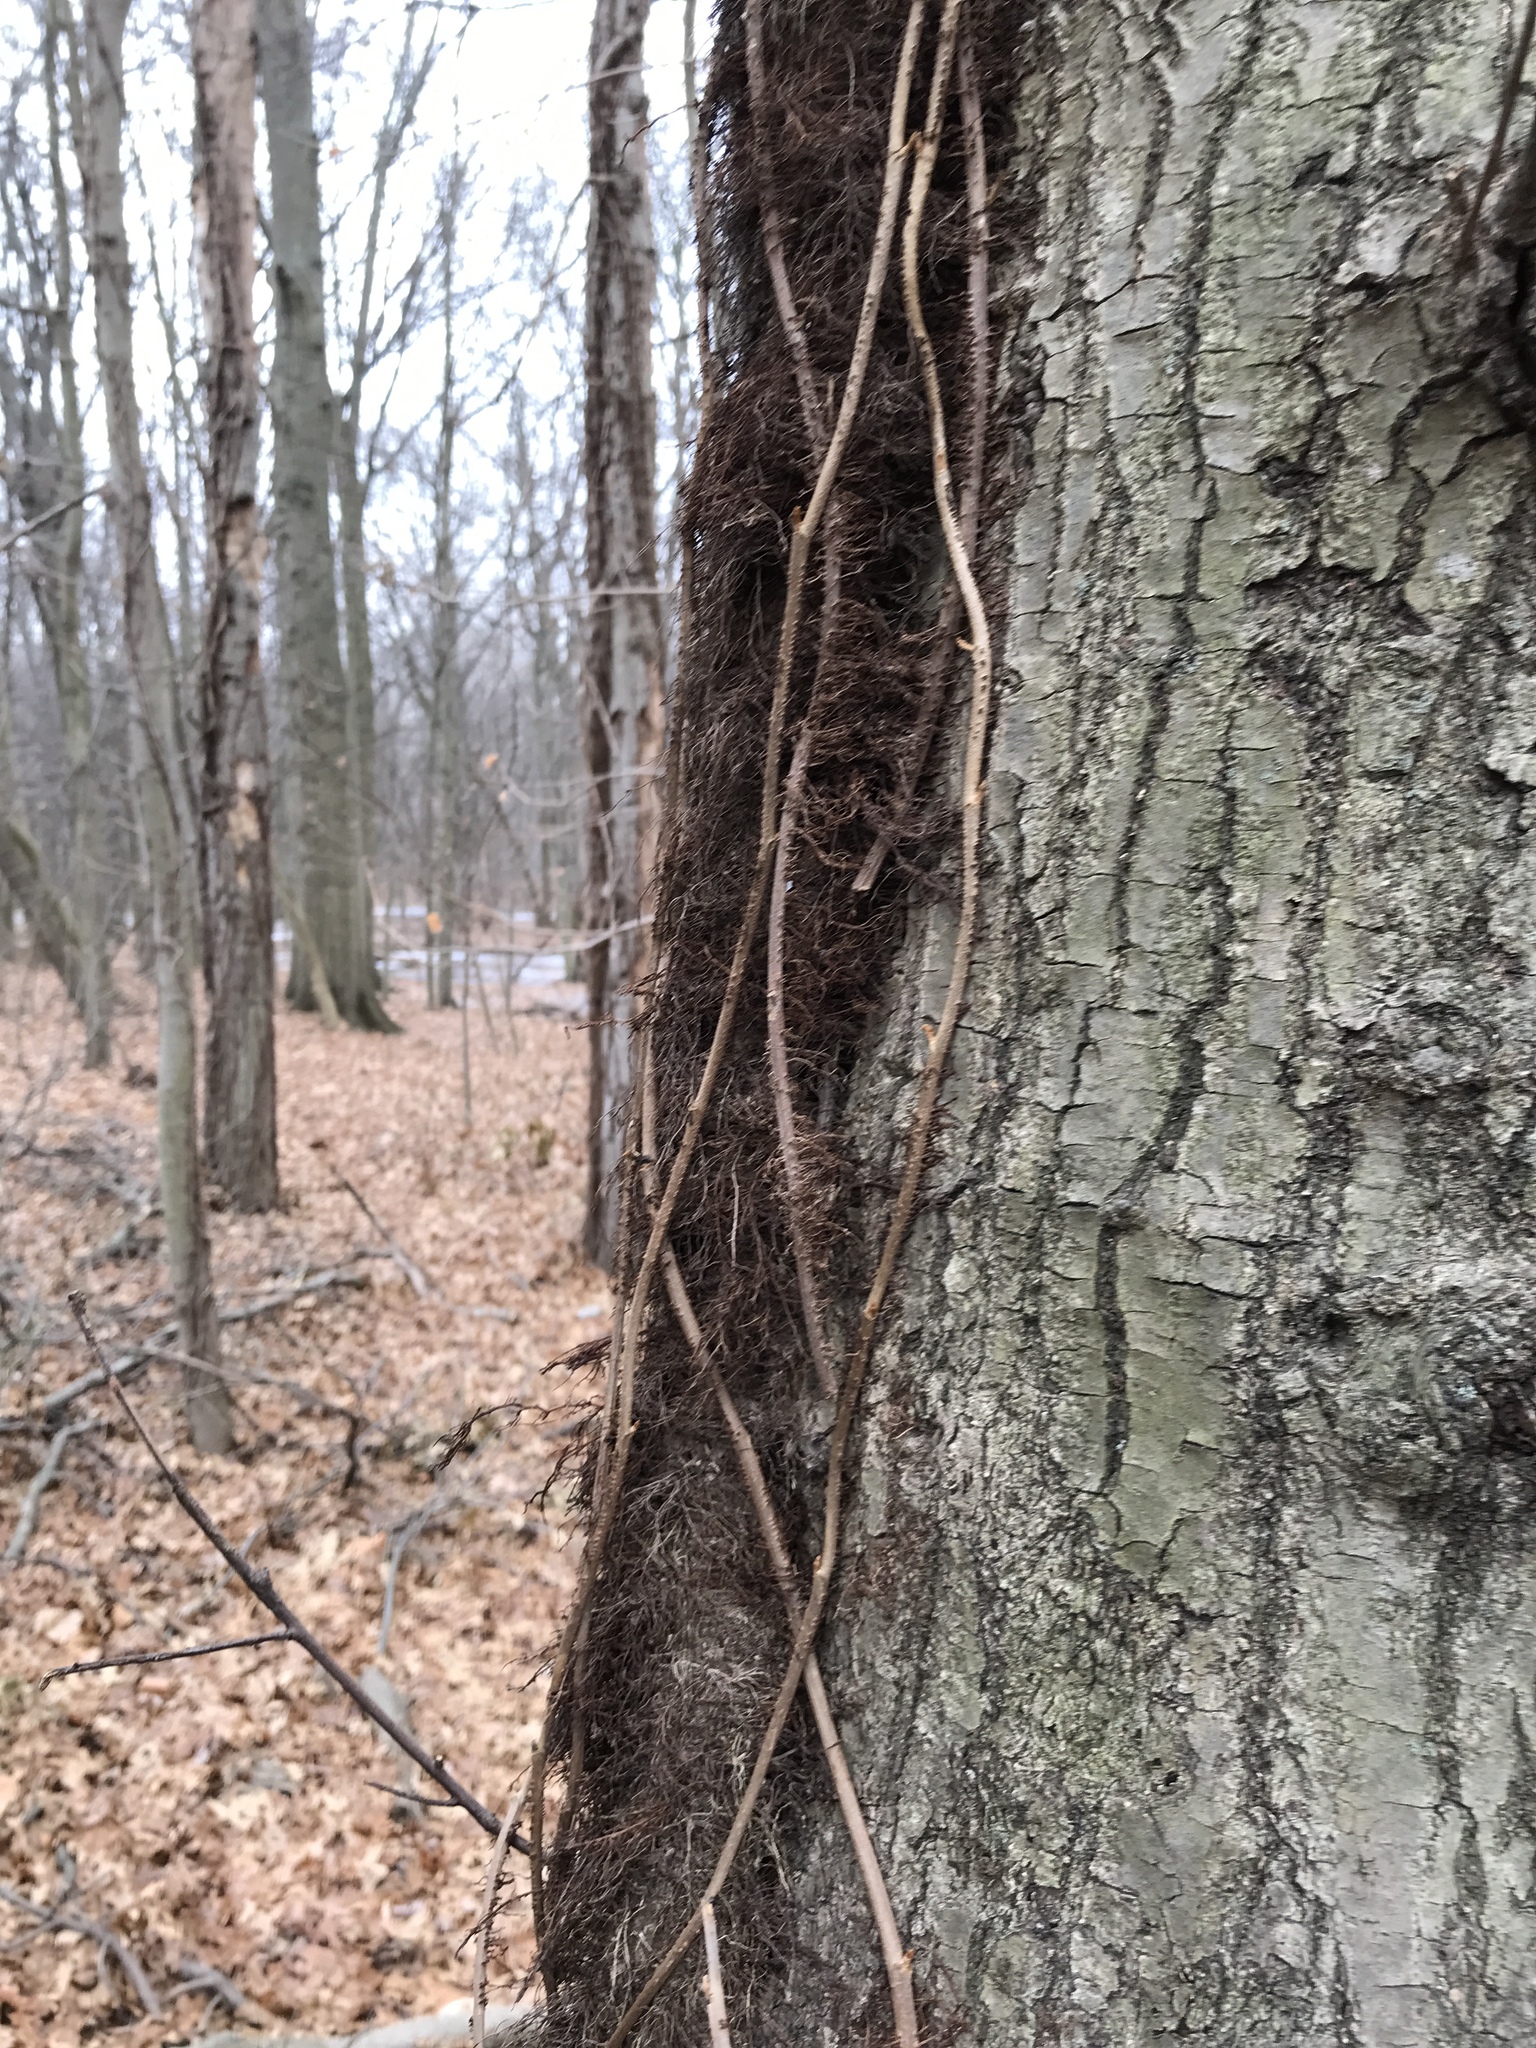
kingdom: Plantae
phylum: Tracheophyta
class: Magnoliopsida
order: Sapindales
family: Anacardiaceae
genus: Toxicodendron
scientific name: Toxicodendron radicans
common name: Poison ivy
